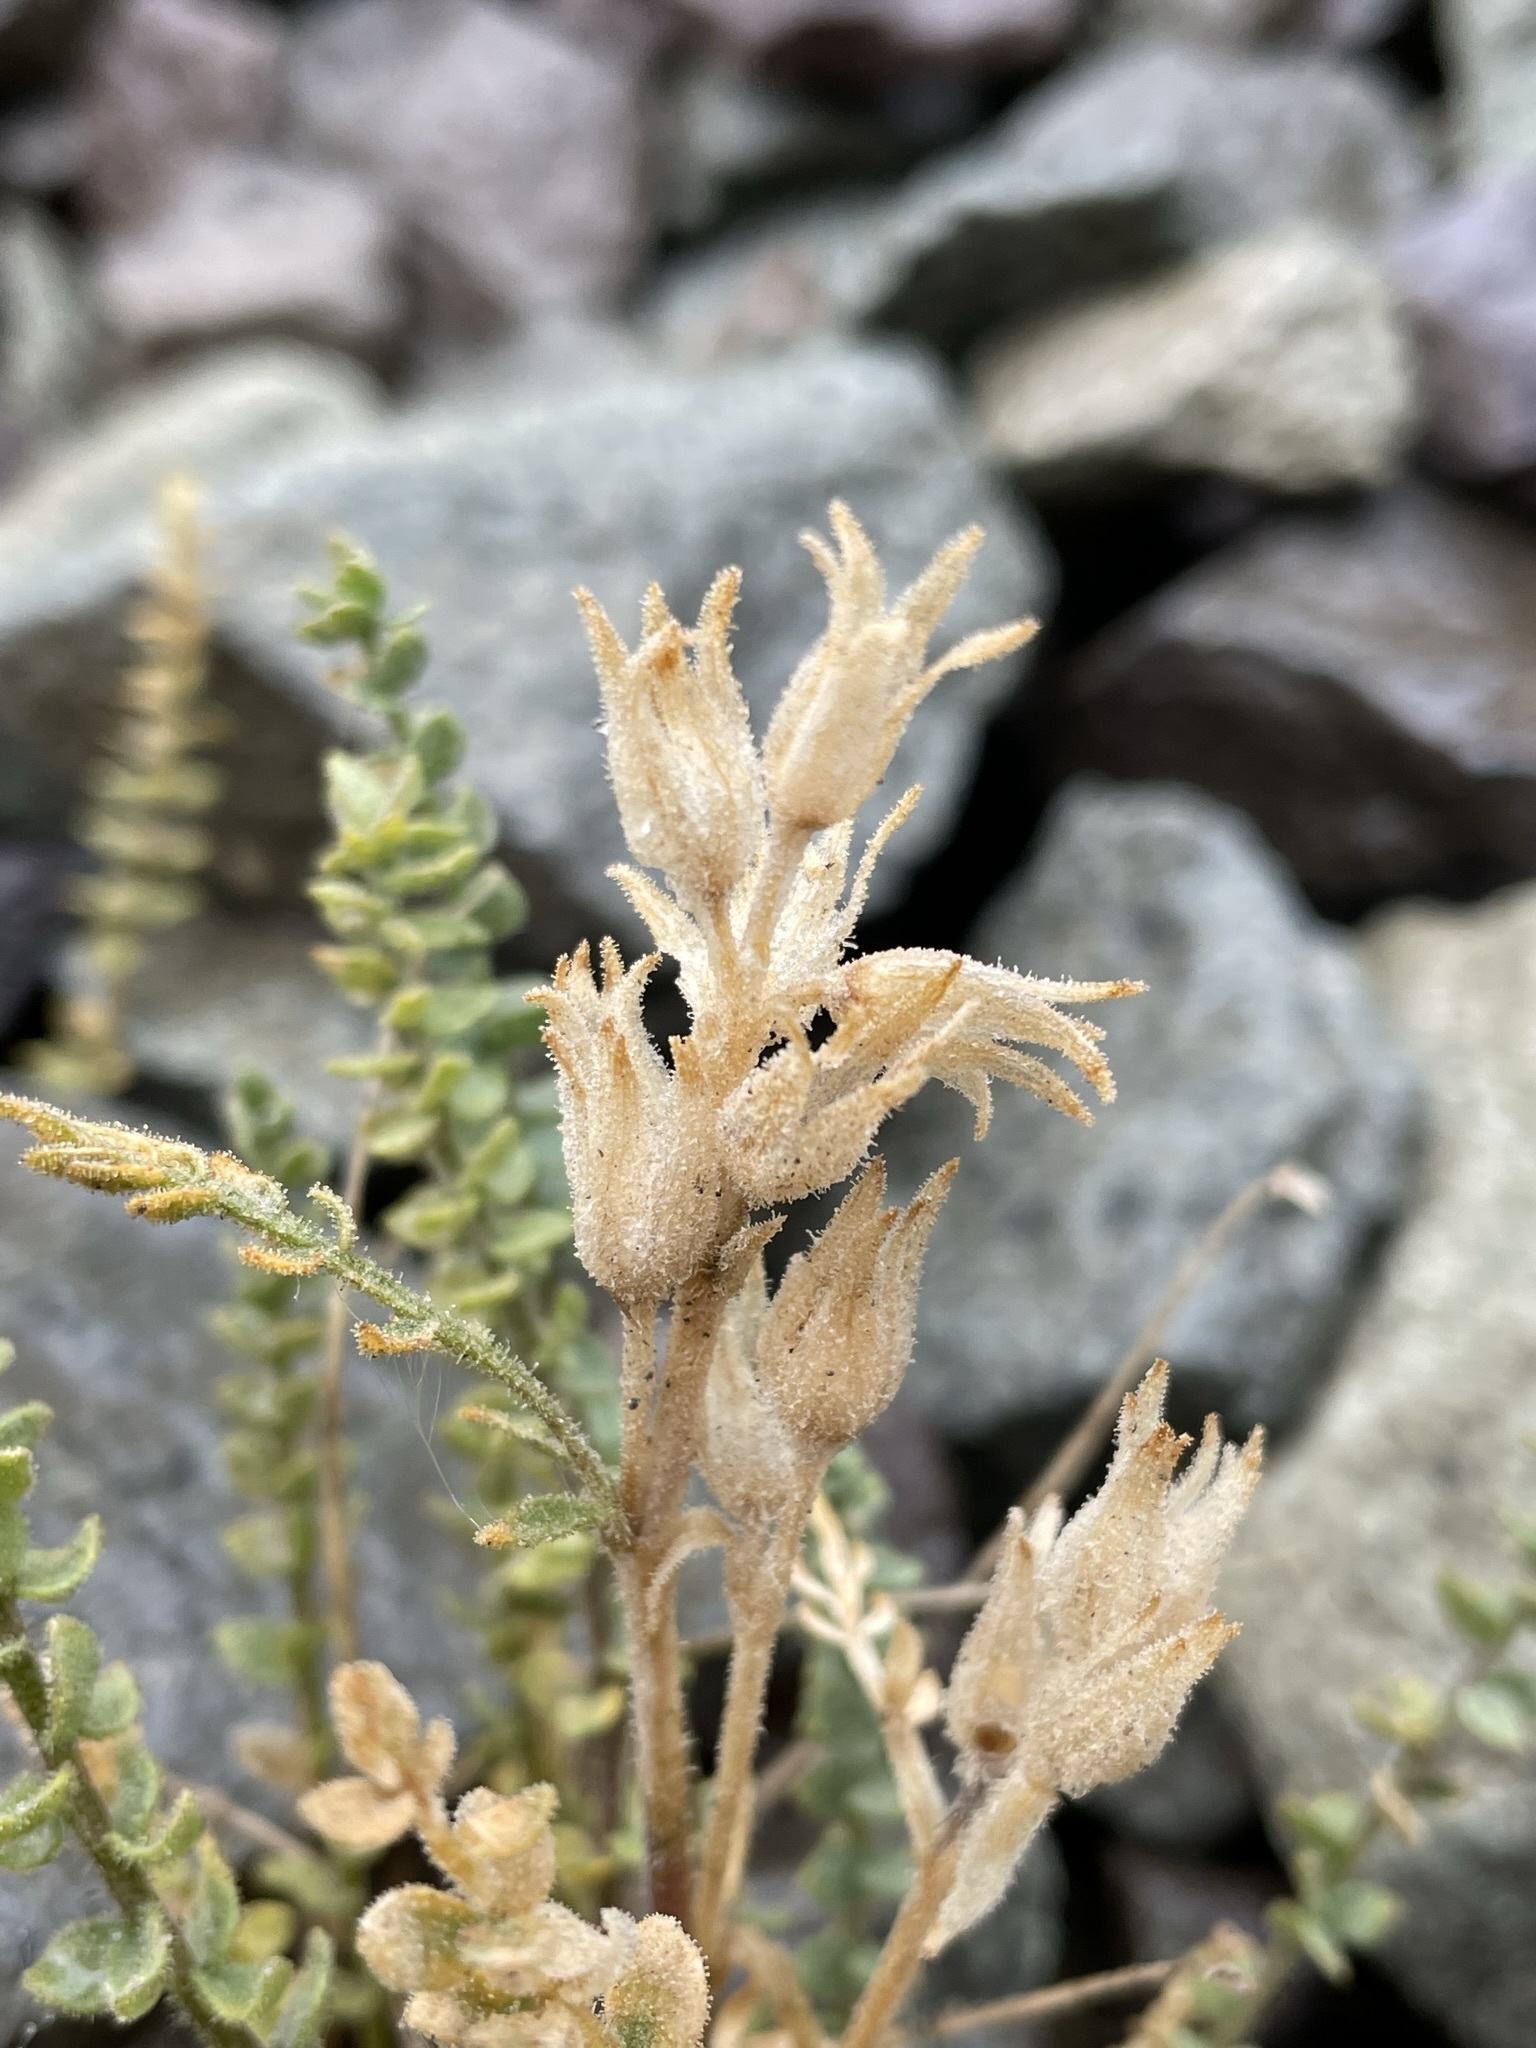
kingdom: Plantae
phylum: Tracheophyta
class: Magnoliopsida
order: Ericales
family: Polemoniaceae
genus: Polemonium
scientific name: Polemonium viscosum
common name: Skunk jacob's-ladder
